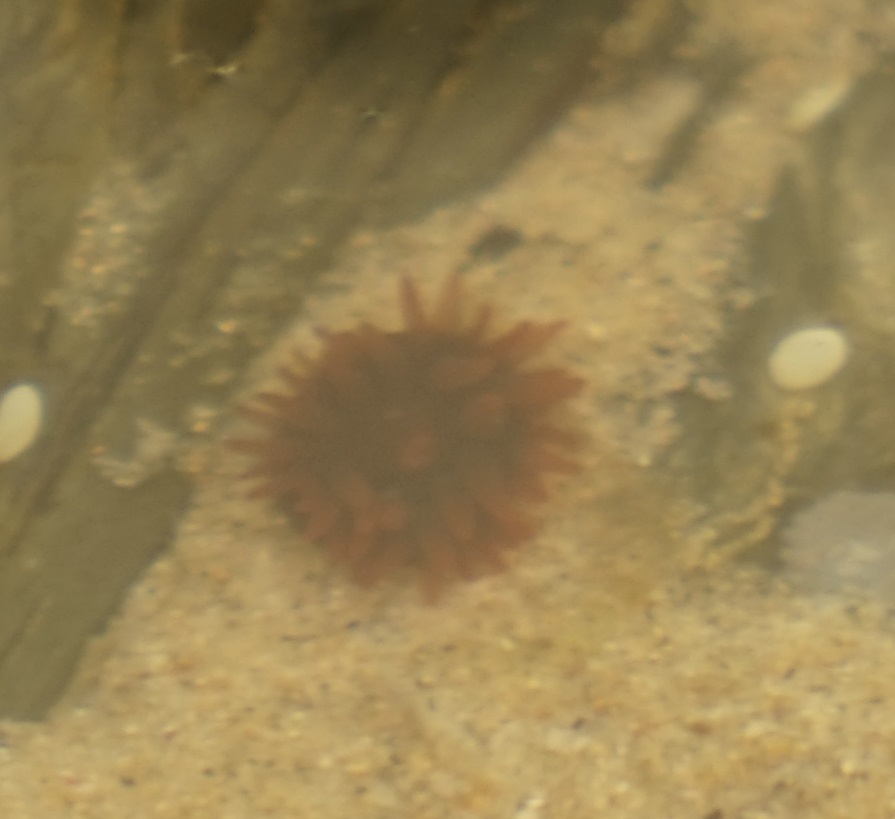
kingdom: Animalia
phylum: Cnidaria
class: Anthozoa
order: Actiniaria
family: Actiniidae
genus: Actinia
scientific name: Actinia tenebrosa
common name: Waratah anemone
